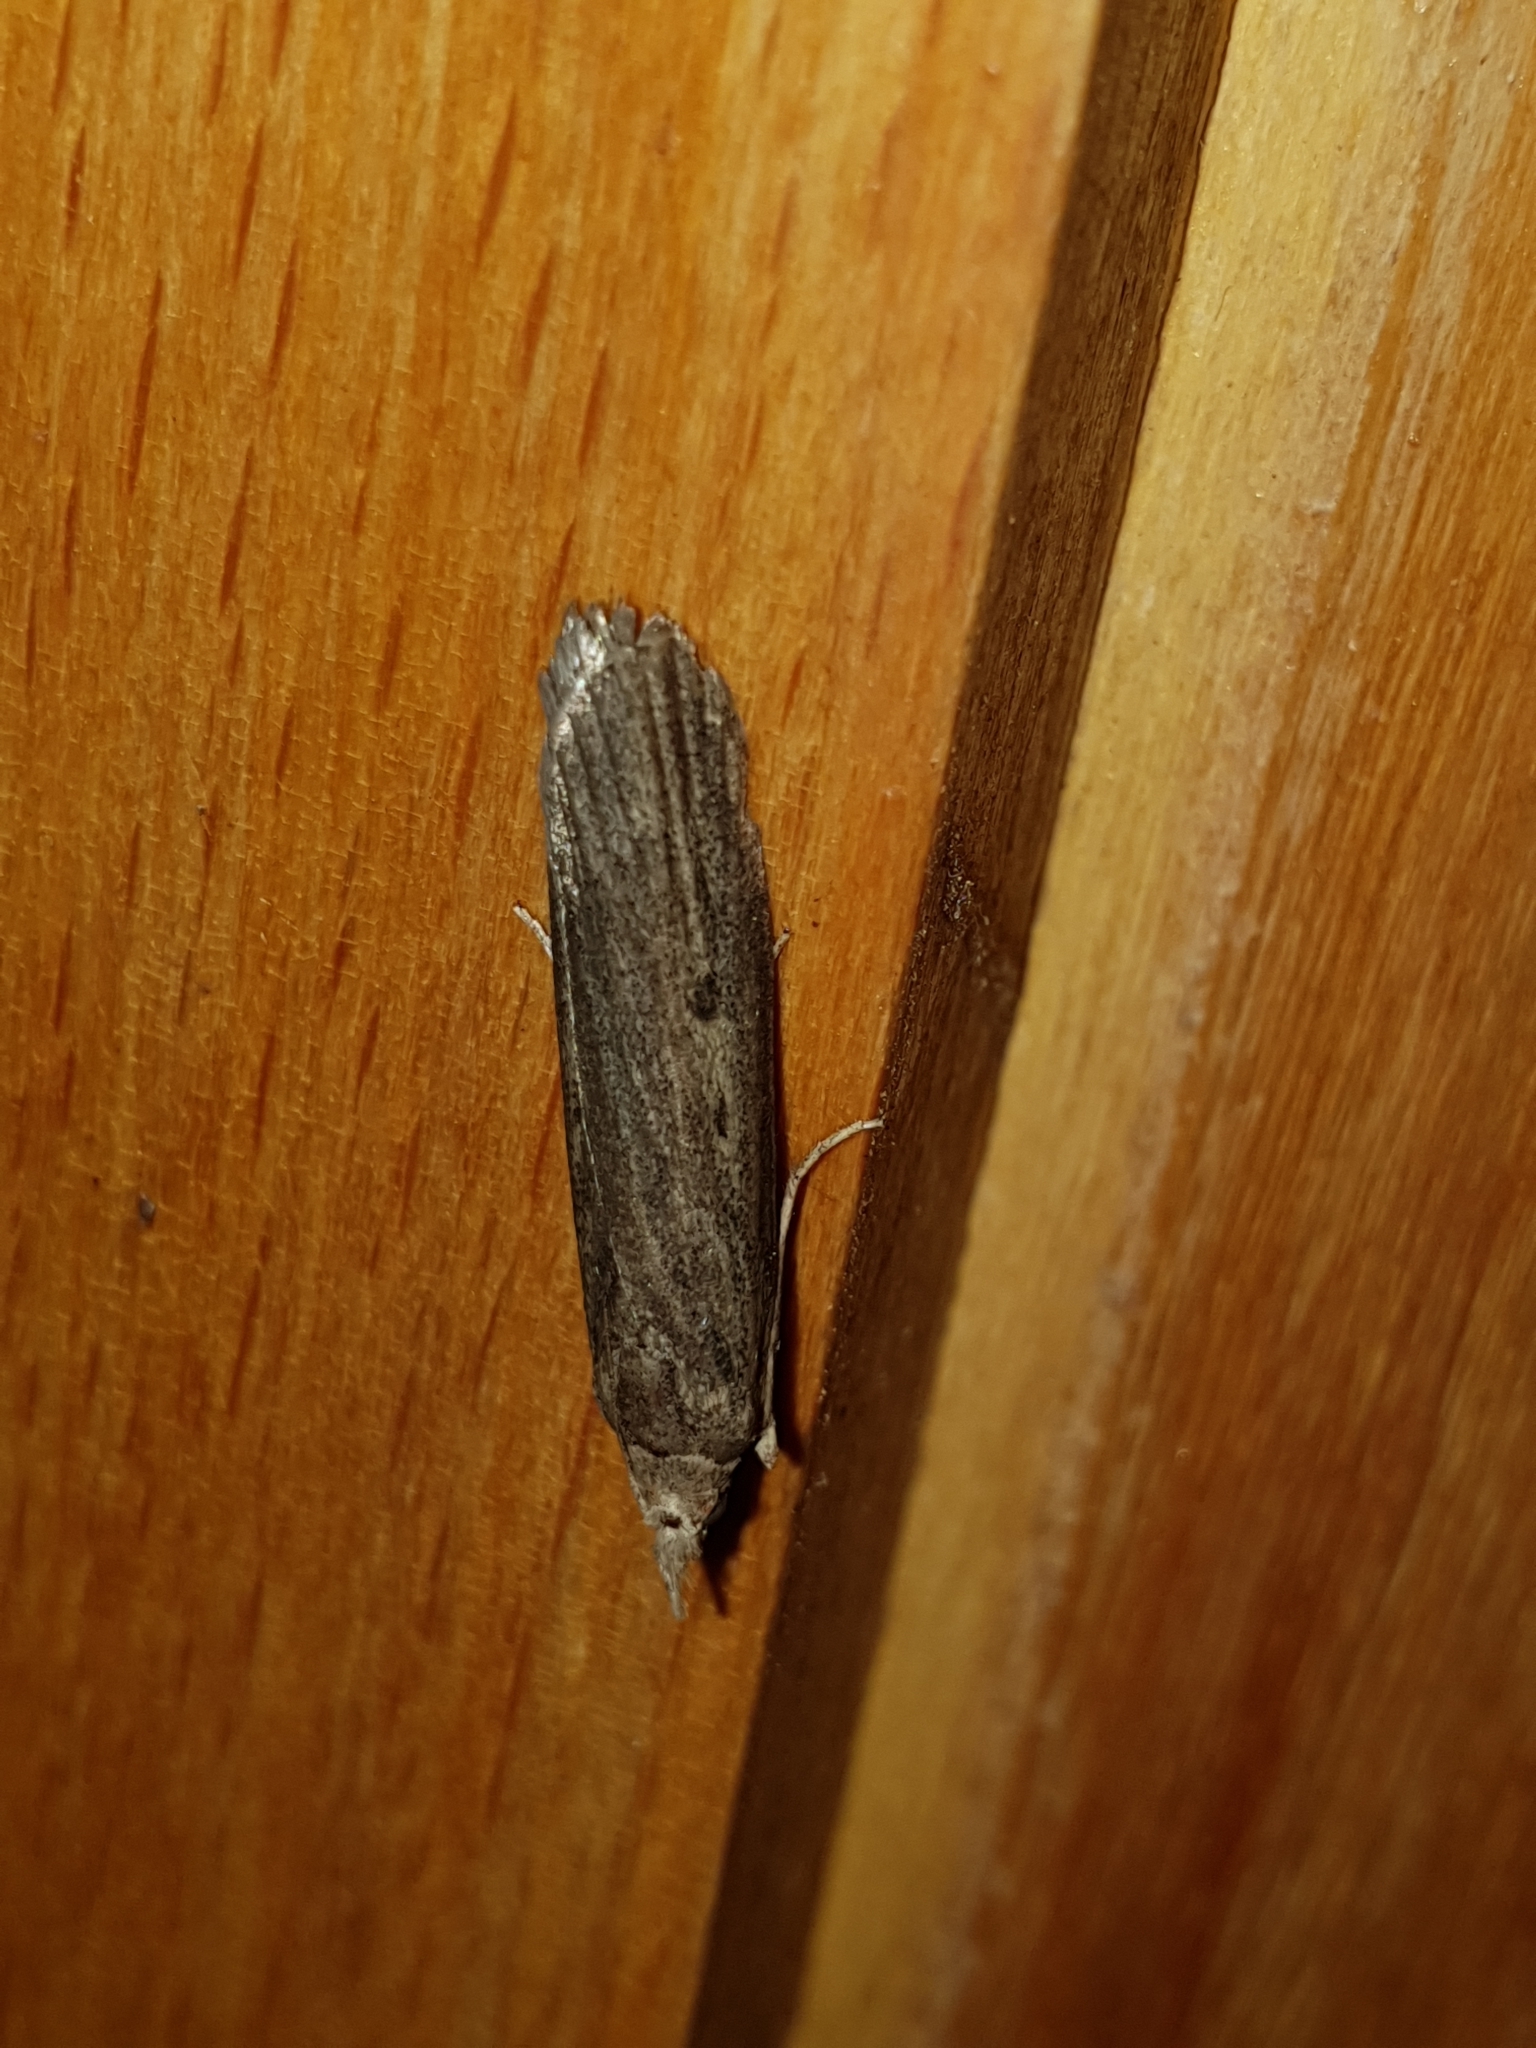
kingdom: Animalia
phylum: Arthropoda
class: Insecta
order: Lepidoptera
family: Pyralidae
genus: Lamoria
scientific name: Lamoria anella
